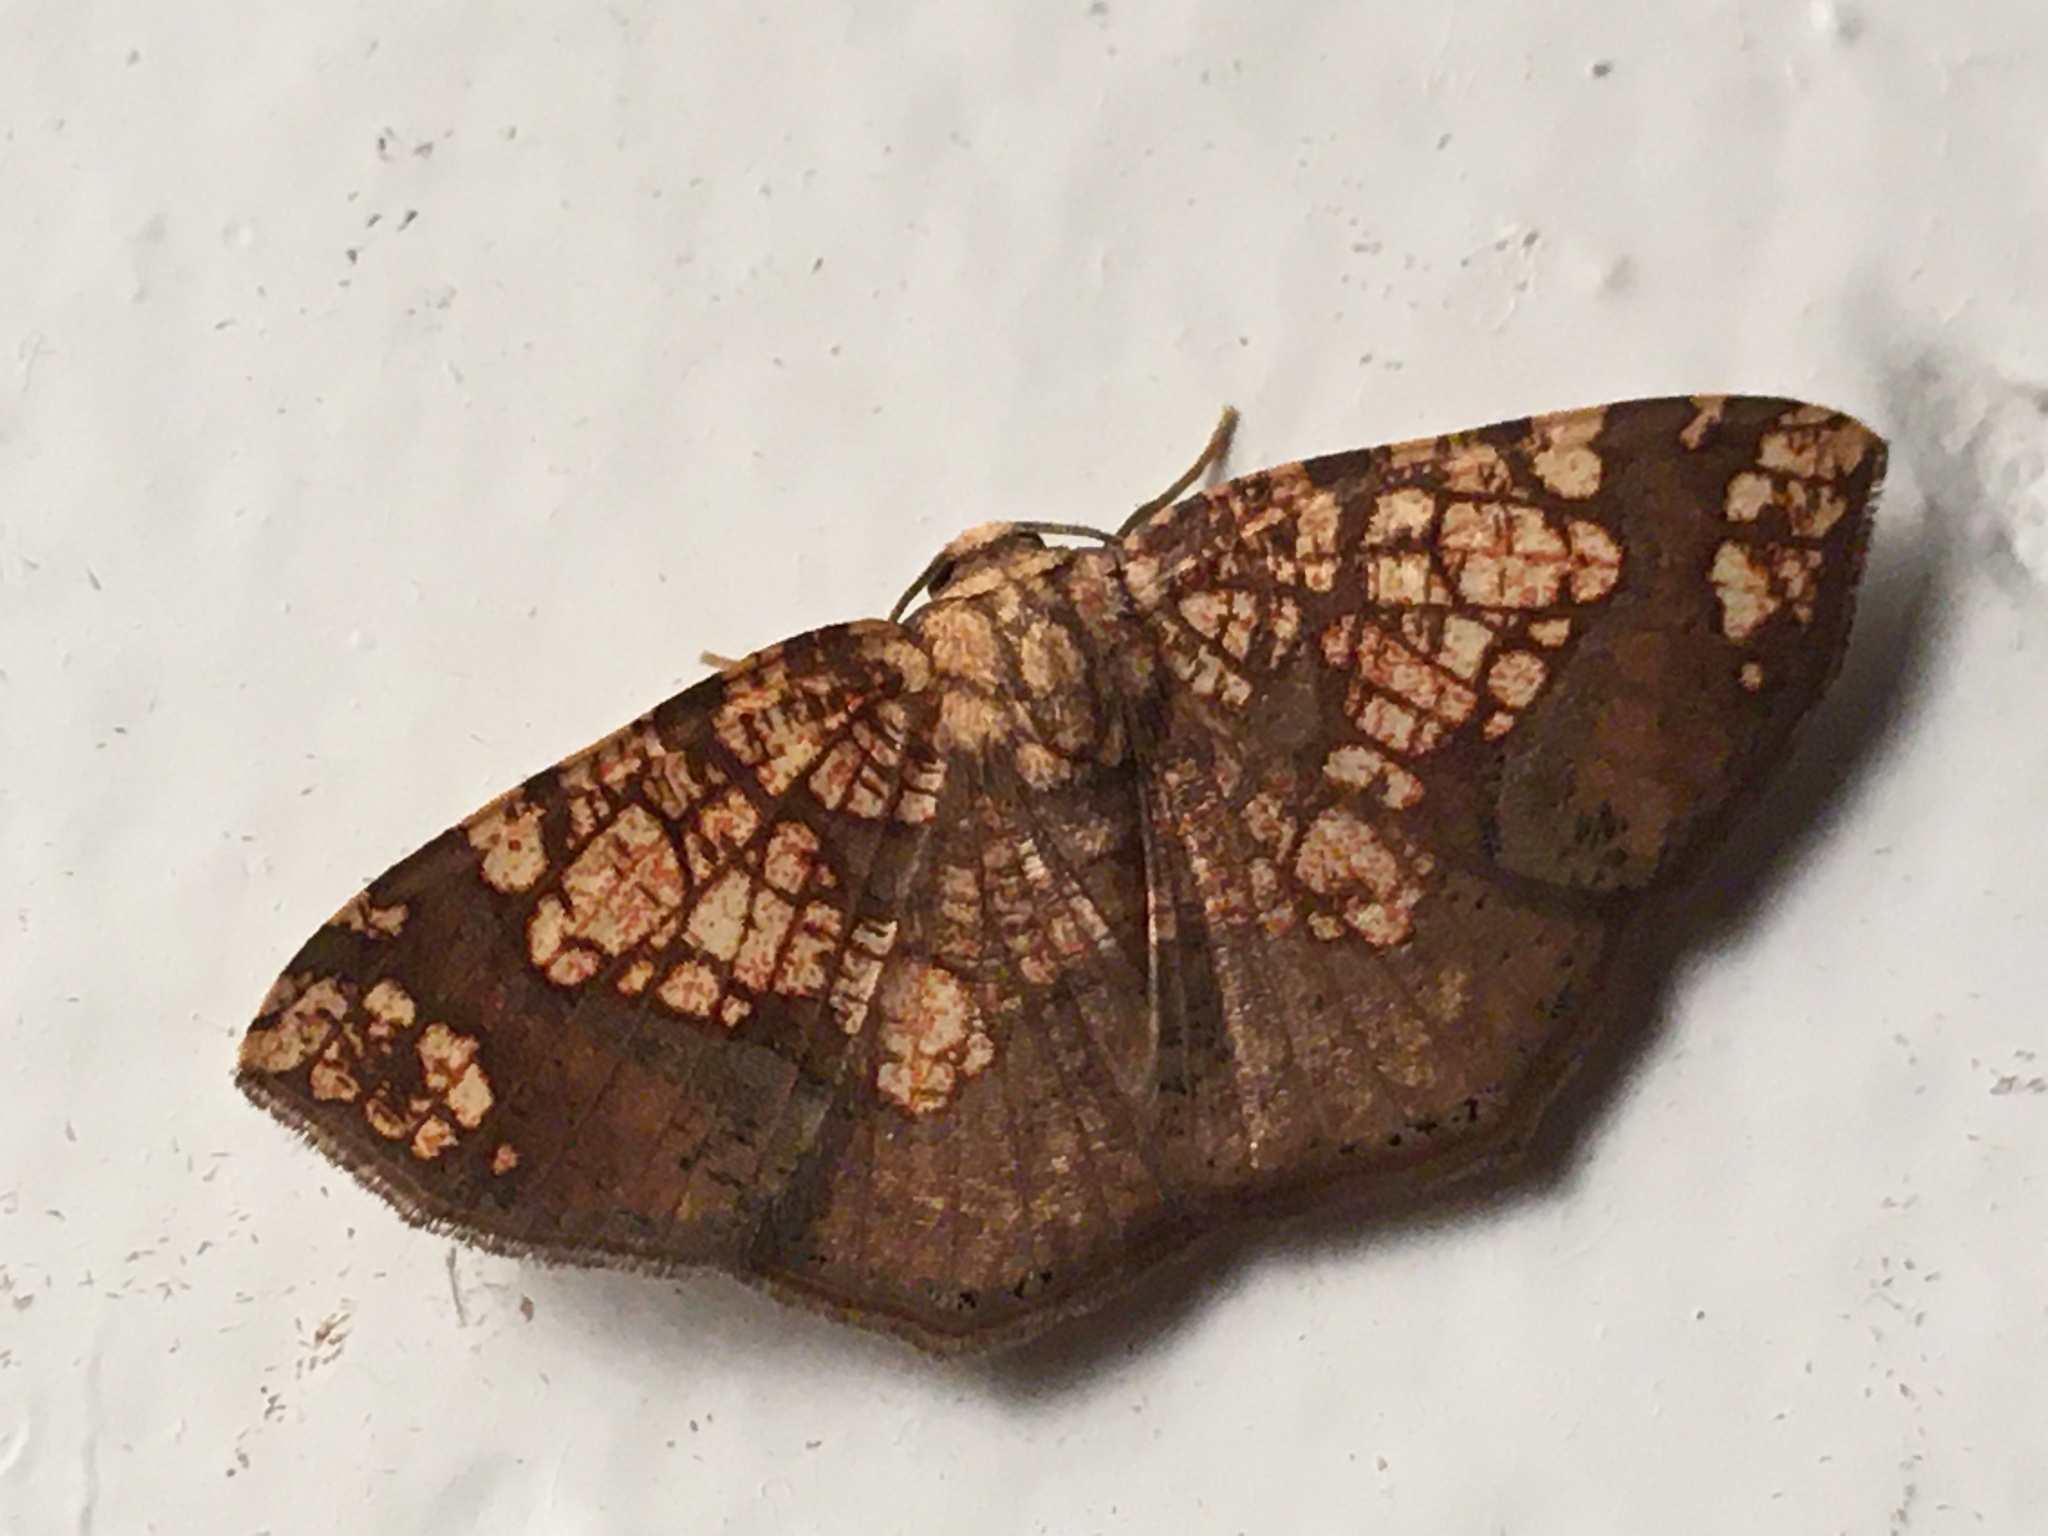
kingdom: Animalia
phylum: Arthropoda
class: Insecta
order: Lepidoptera
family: Geometridae
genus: Nematocampa
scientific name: Nematocampa completa
